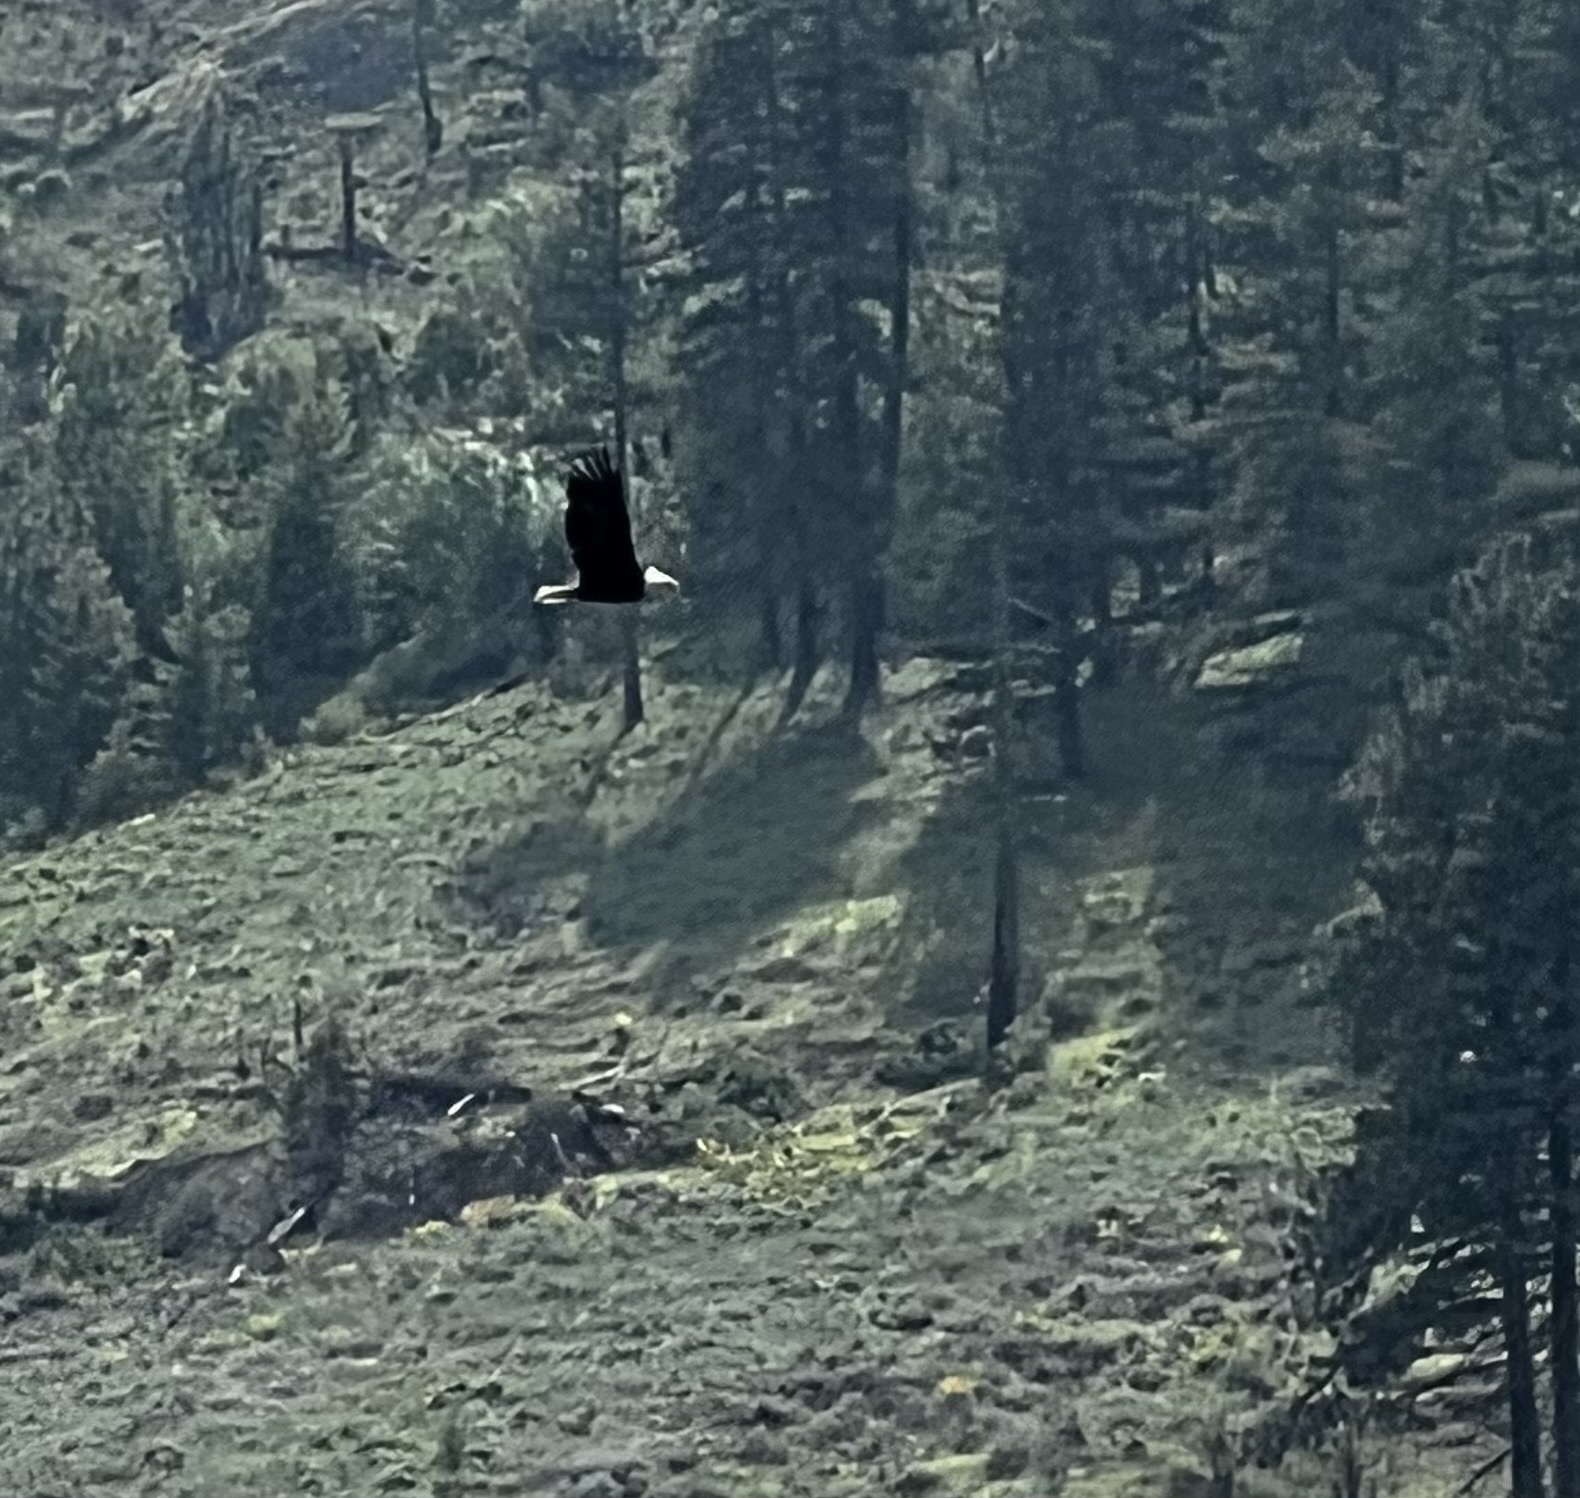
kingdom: Animalia
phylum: Chordata
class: Aves
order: Accipitriformes
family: Accipitridae
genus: Haliaeetus
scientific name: Haliaeetus leucocephalus
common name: Bald eagle
